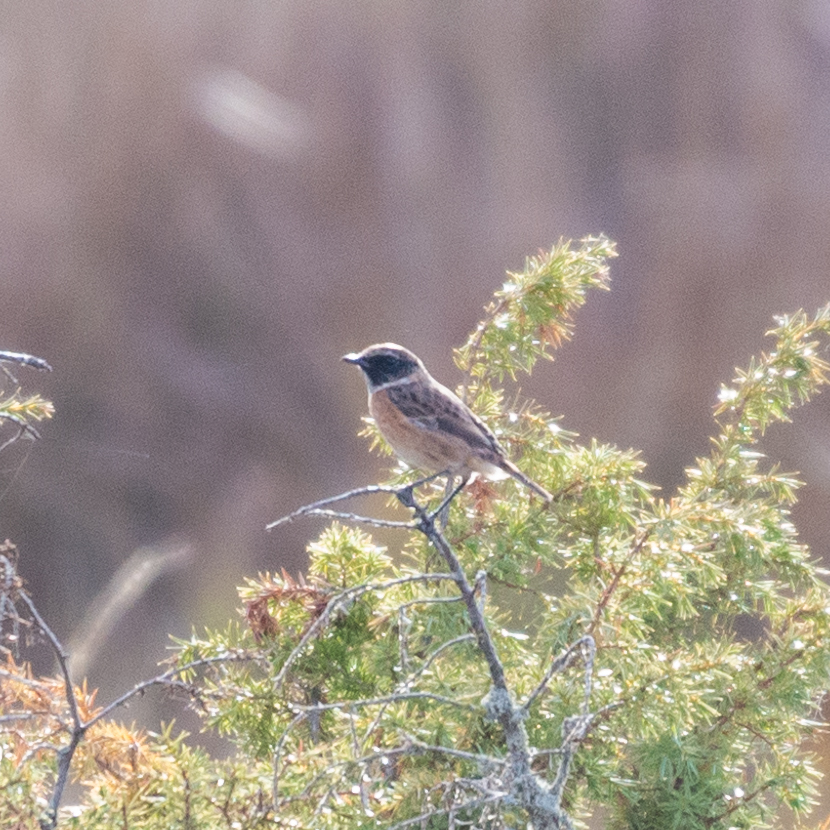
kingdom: Animalia
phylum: Chordata
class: Aves
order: Passeriformes
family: Muscicapidae
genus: Saxicola
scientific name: Saxicola rubicola
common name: European stonechat
